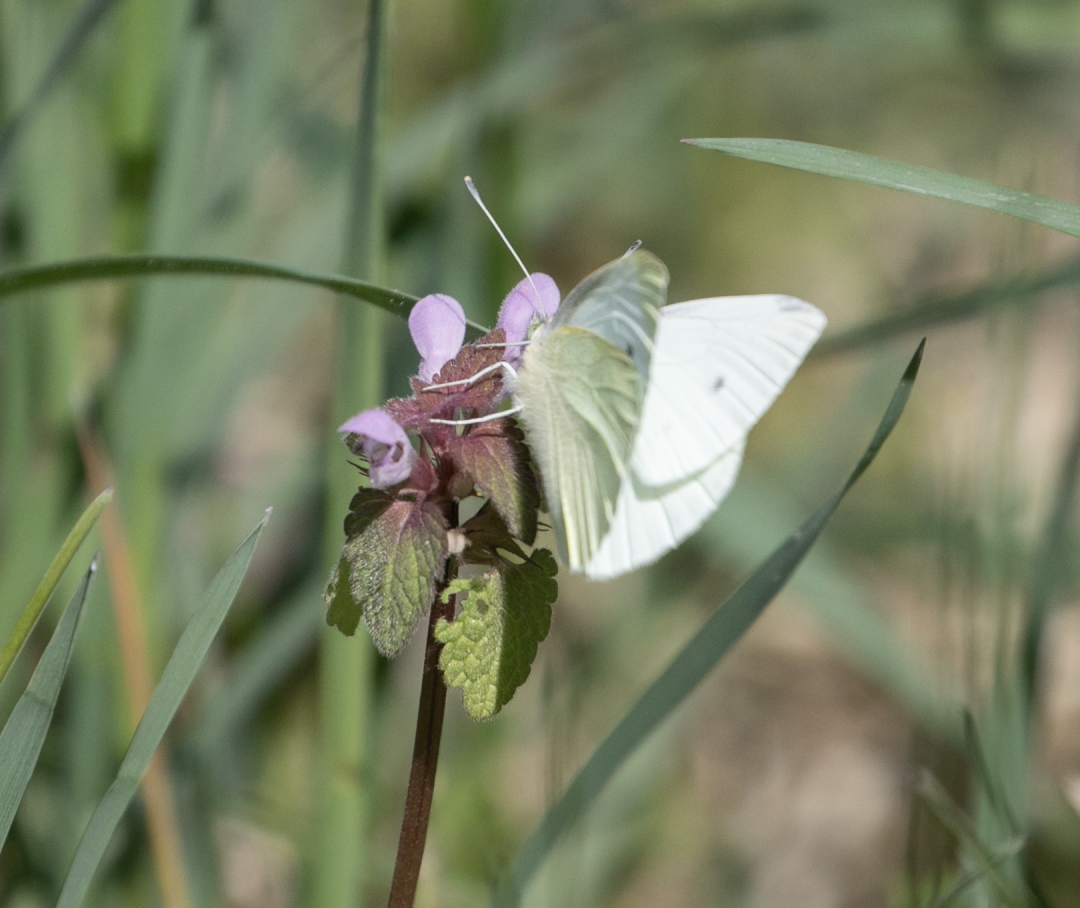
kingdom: Animalia
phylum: Arthropoda
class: Insecta
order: Lepidoptera
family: Pieridae
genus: Pieris
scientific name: Pieris rapae
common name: Small white
